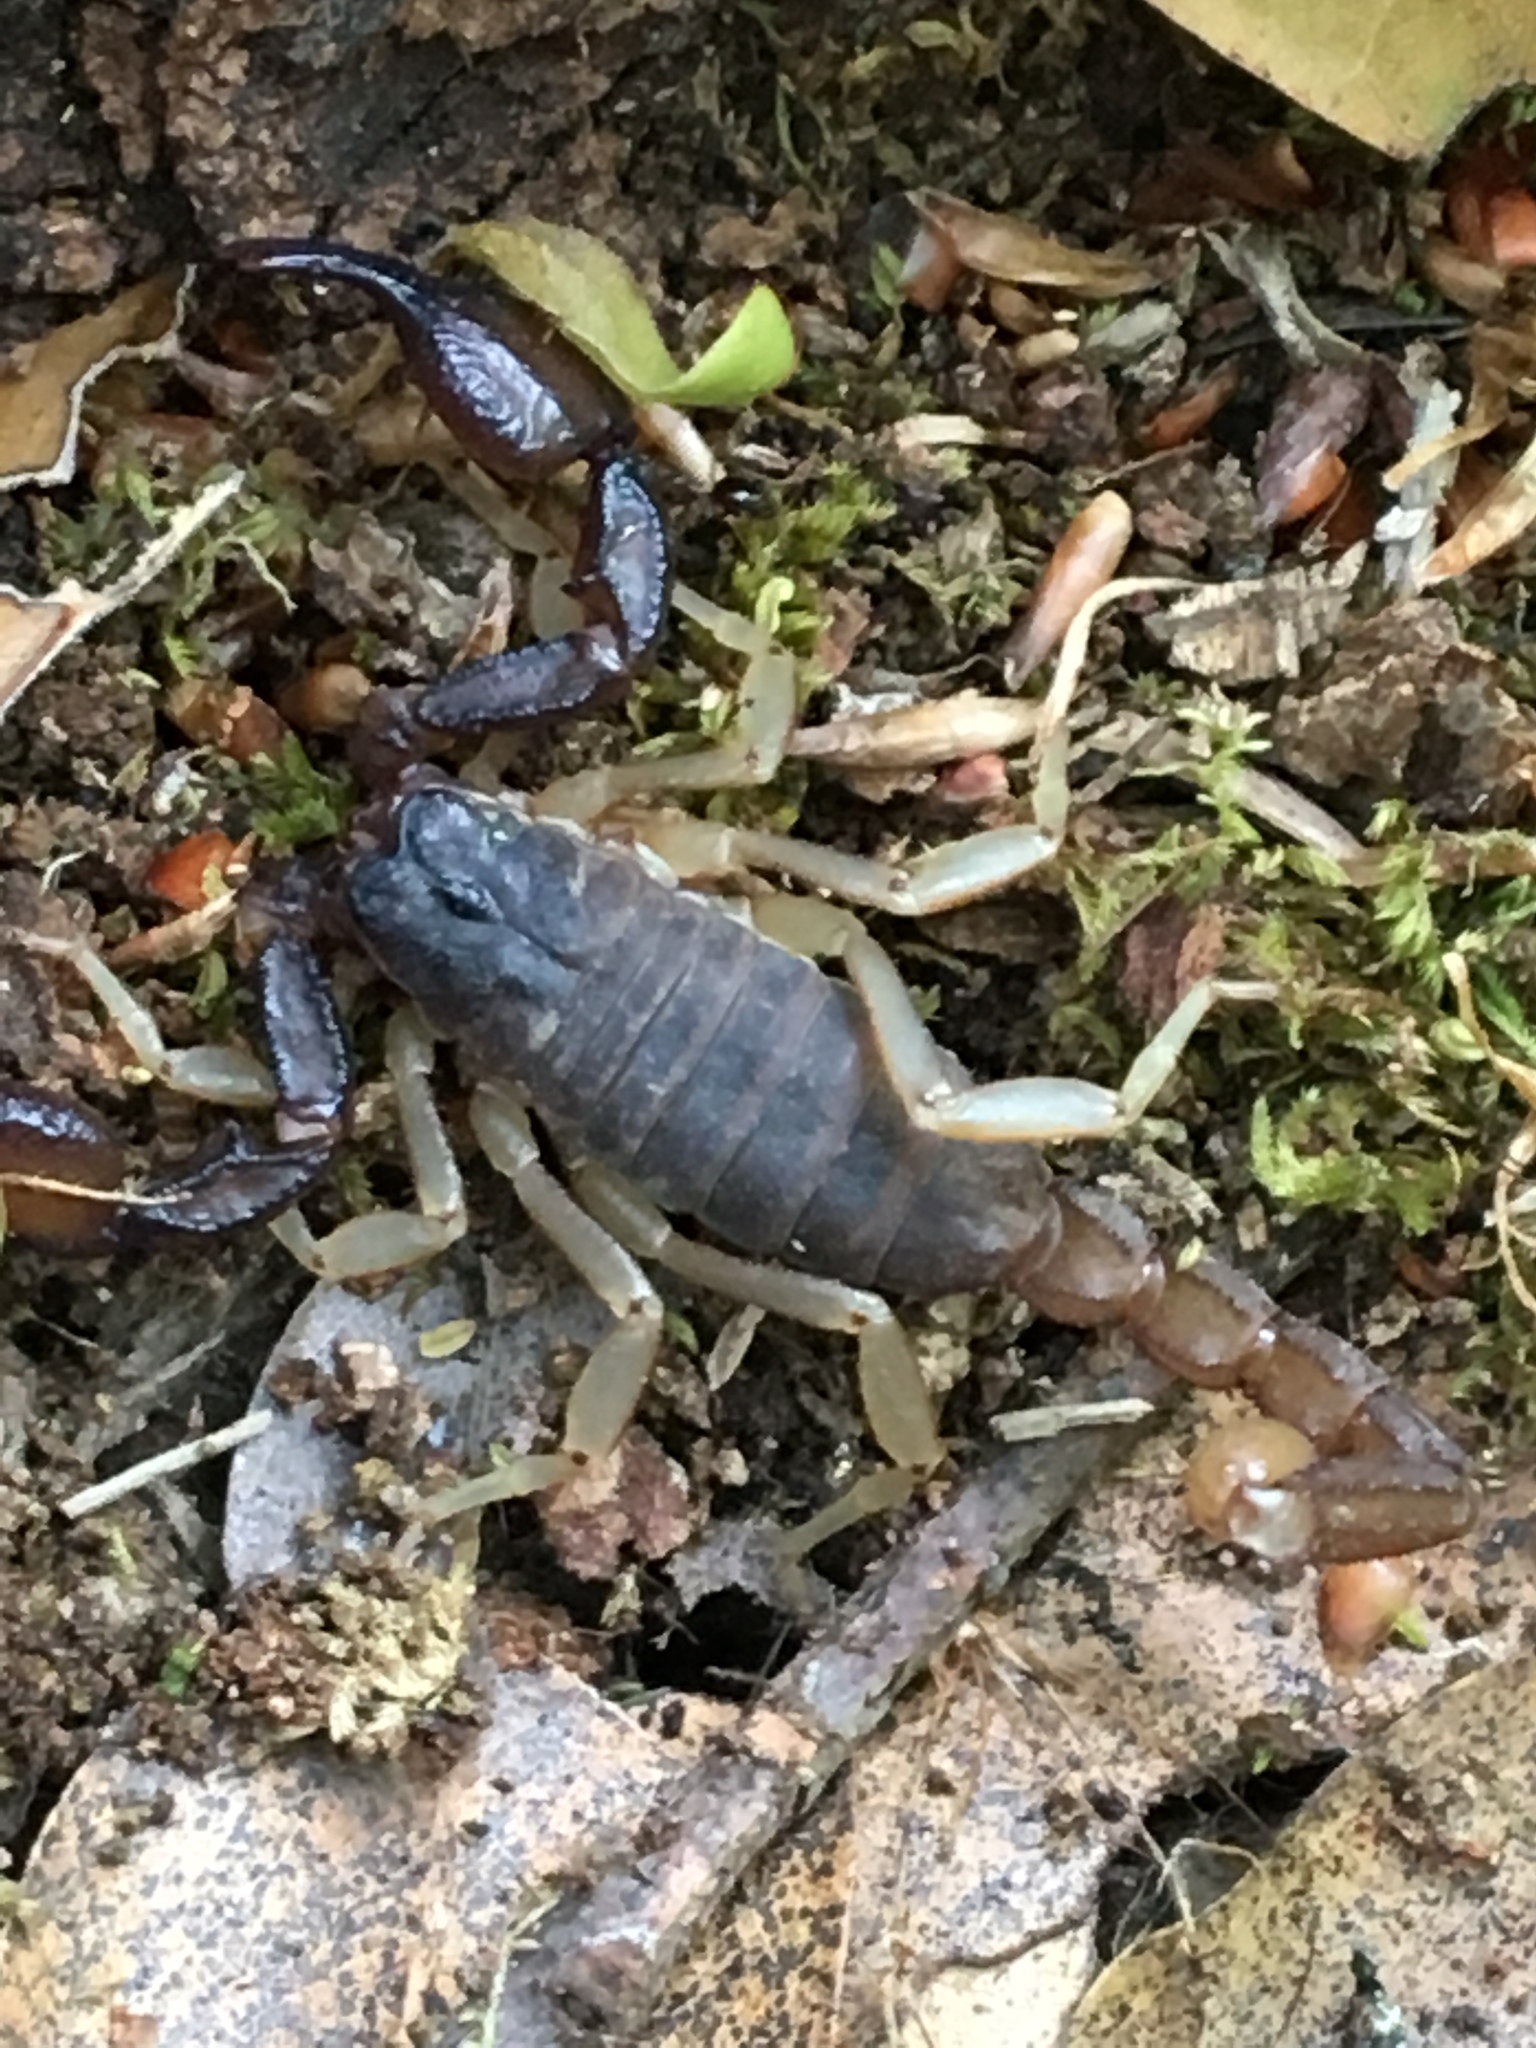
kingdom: Animalia
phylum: Arthropoda
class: Arachnida
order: Scorpiones
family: Chactidae
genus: Uroctonus
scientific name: Uroctonus mordax
